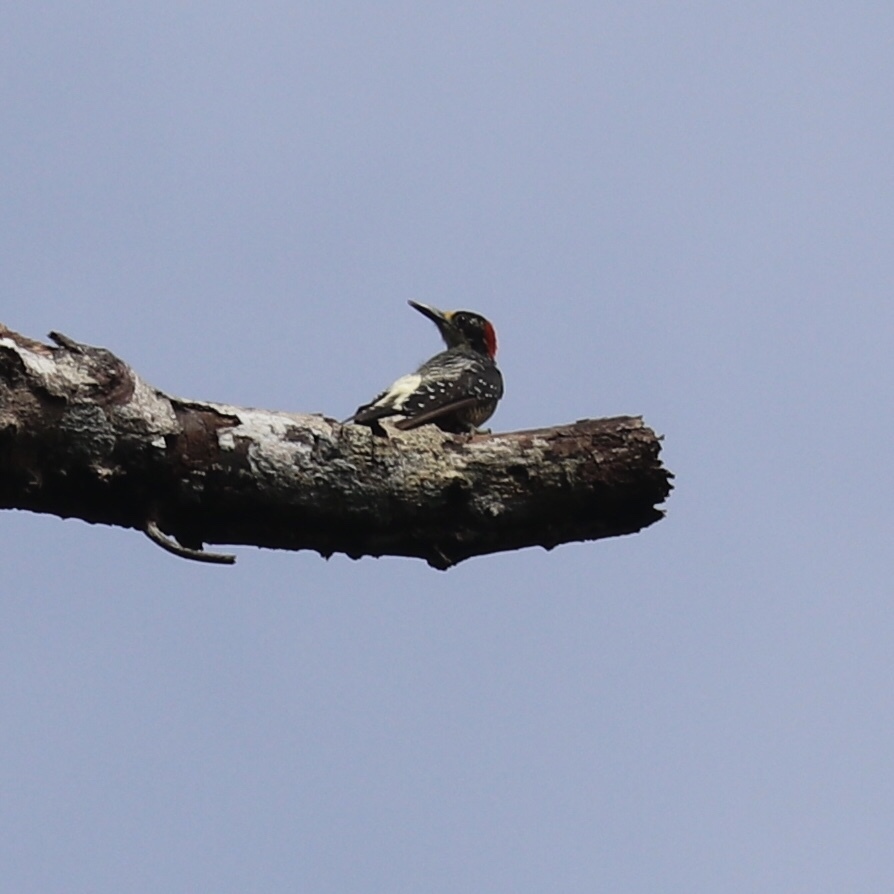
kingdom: Animalia
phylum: Chordata
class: Aves
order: Piciformes
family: Picidae
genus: Melanerpes
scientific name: Melanerpes pucherani
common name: Black-cheeked woodpecker
